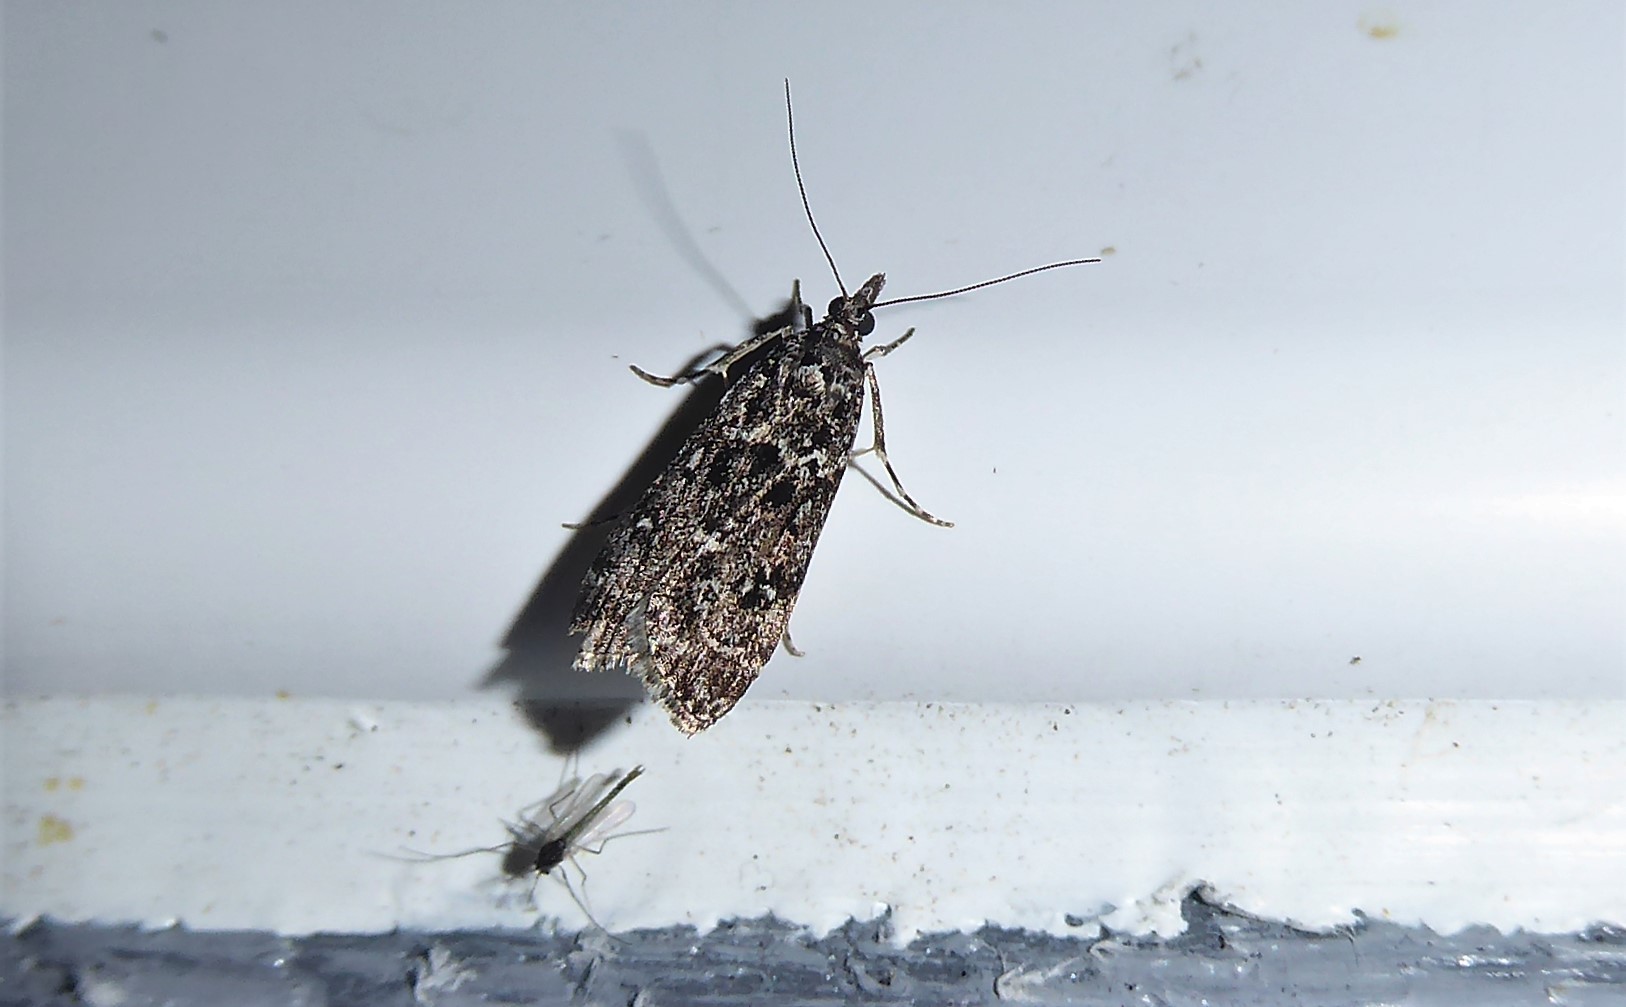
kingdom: Animalia
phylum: Arthropoda
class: Insecta
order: Lepidoptera
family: Crambidae
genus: Eudonia
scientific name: Eudonia philerga
